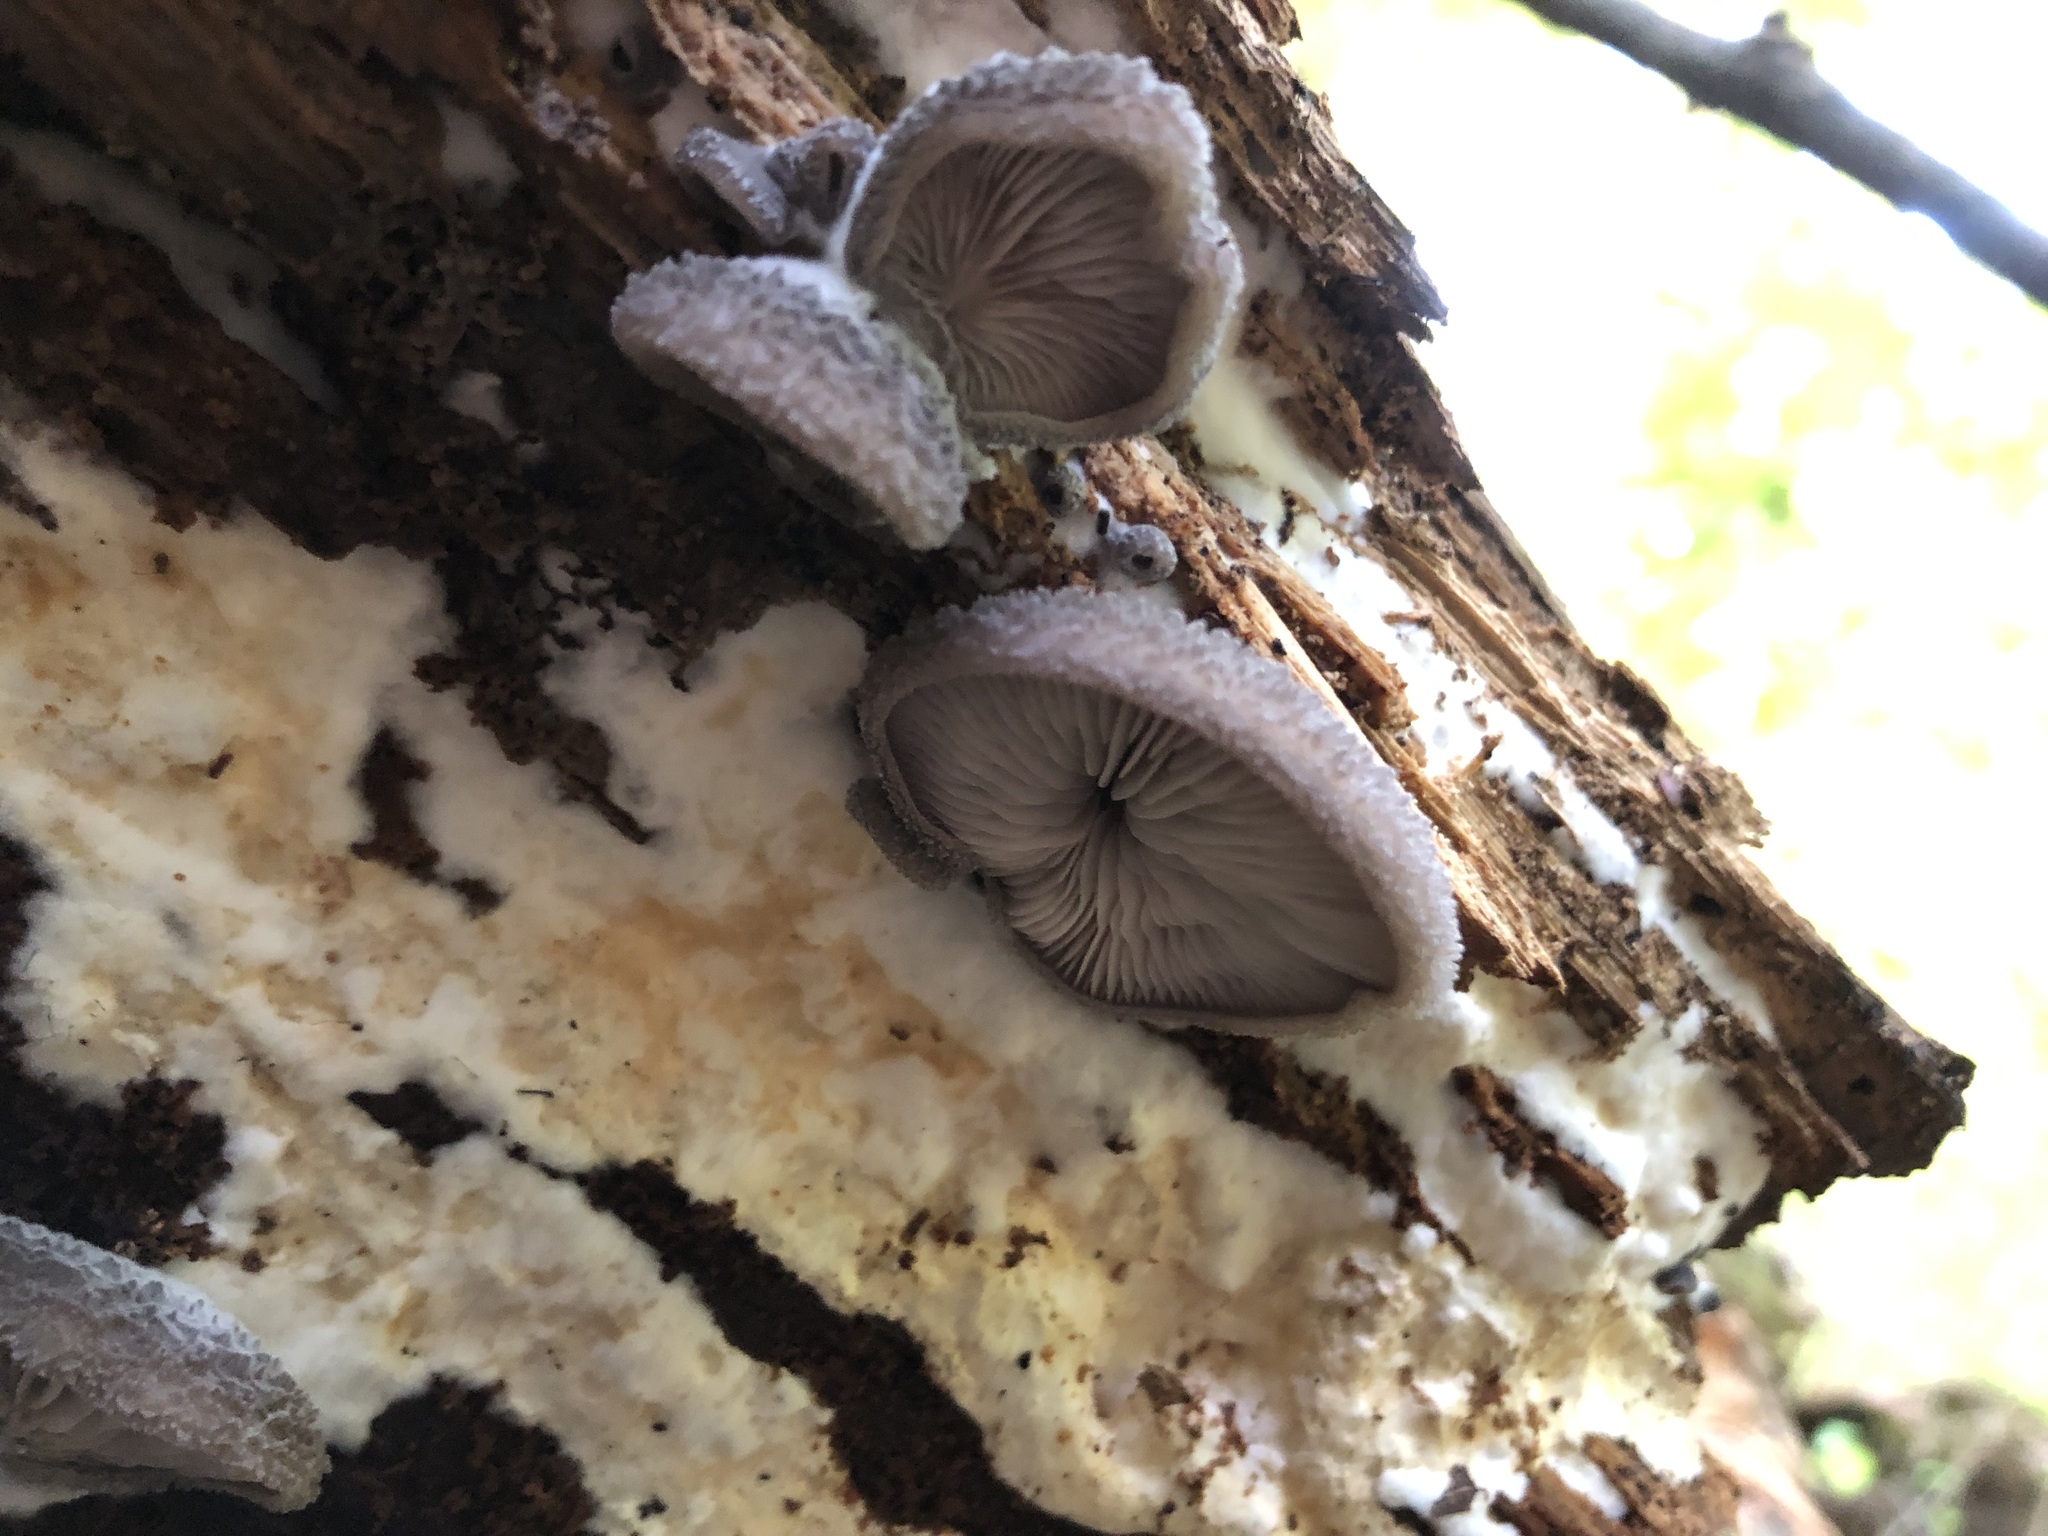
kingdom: Fungi
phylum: Basidiomycota
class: Agaricomycetes
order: Agaricales
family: Pleurotaceae
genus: Hohenbuehelia
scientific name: Hohenbuehelia mastrucata
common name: Woolly oyster
